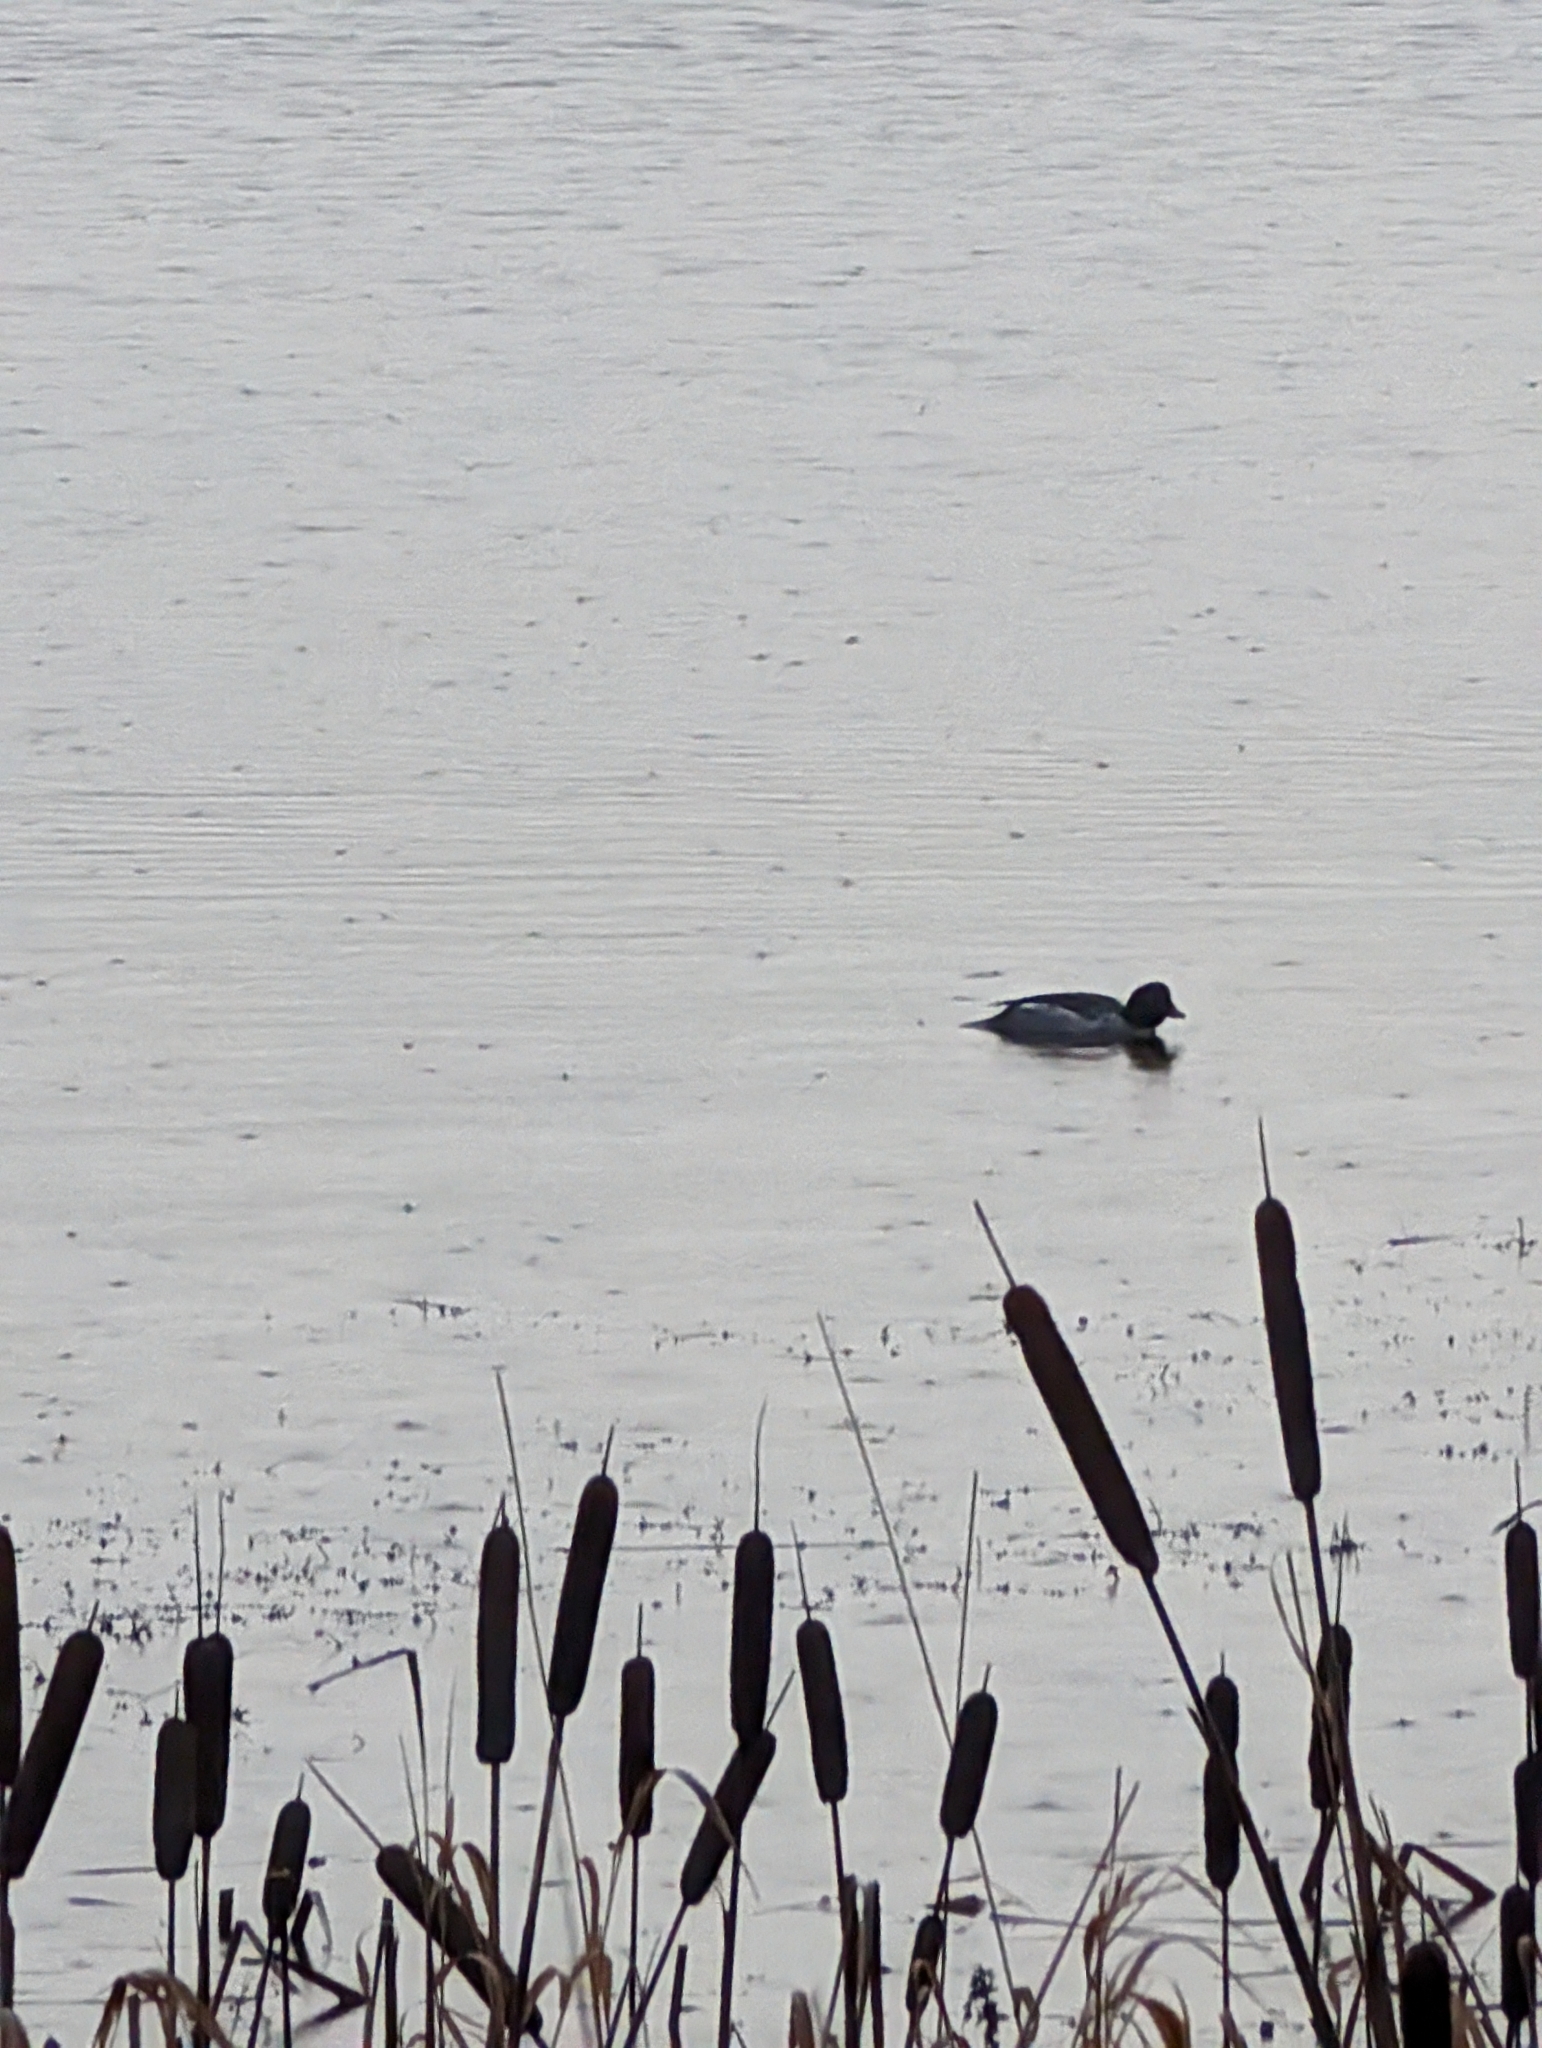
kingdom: Animalia
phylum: Chordata
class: Aves
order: Anseriformes
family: Anatidae
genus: Bucephala
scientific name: Bucephala clangula
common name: Common goldeneye
